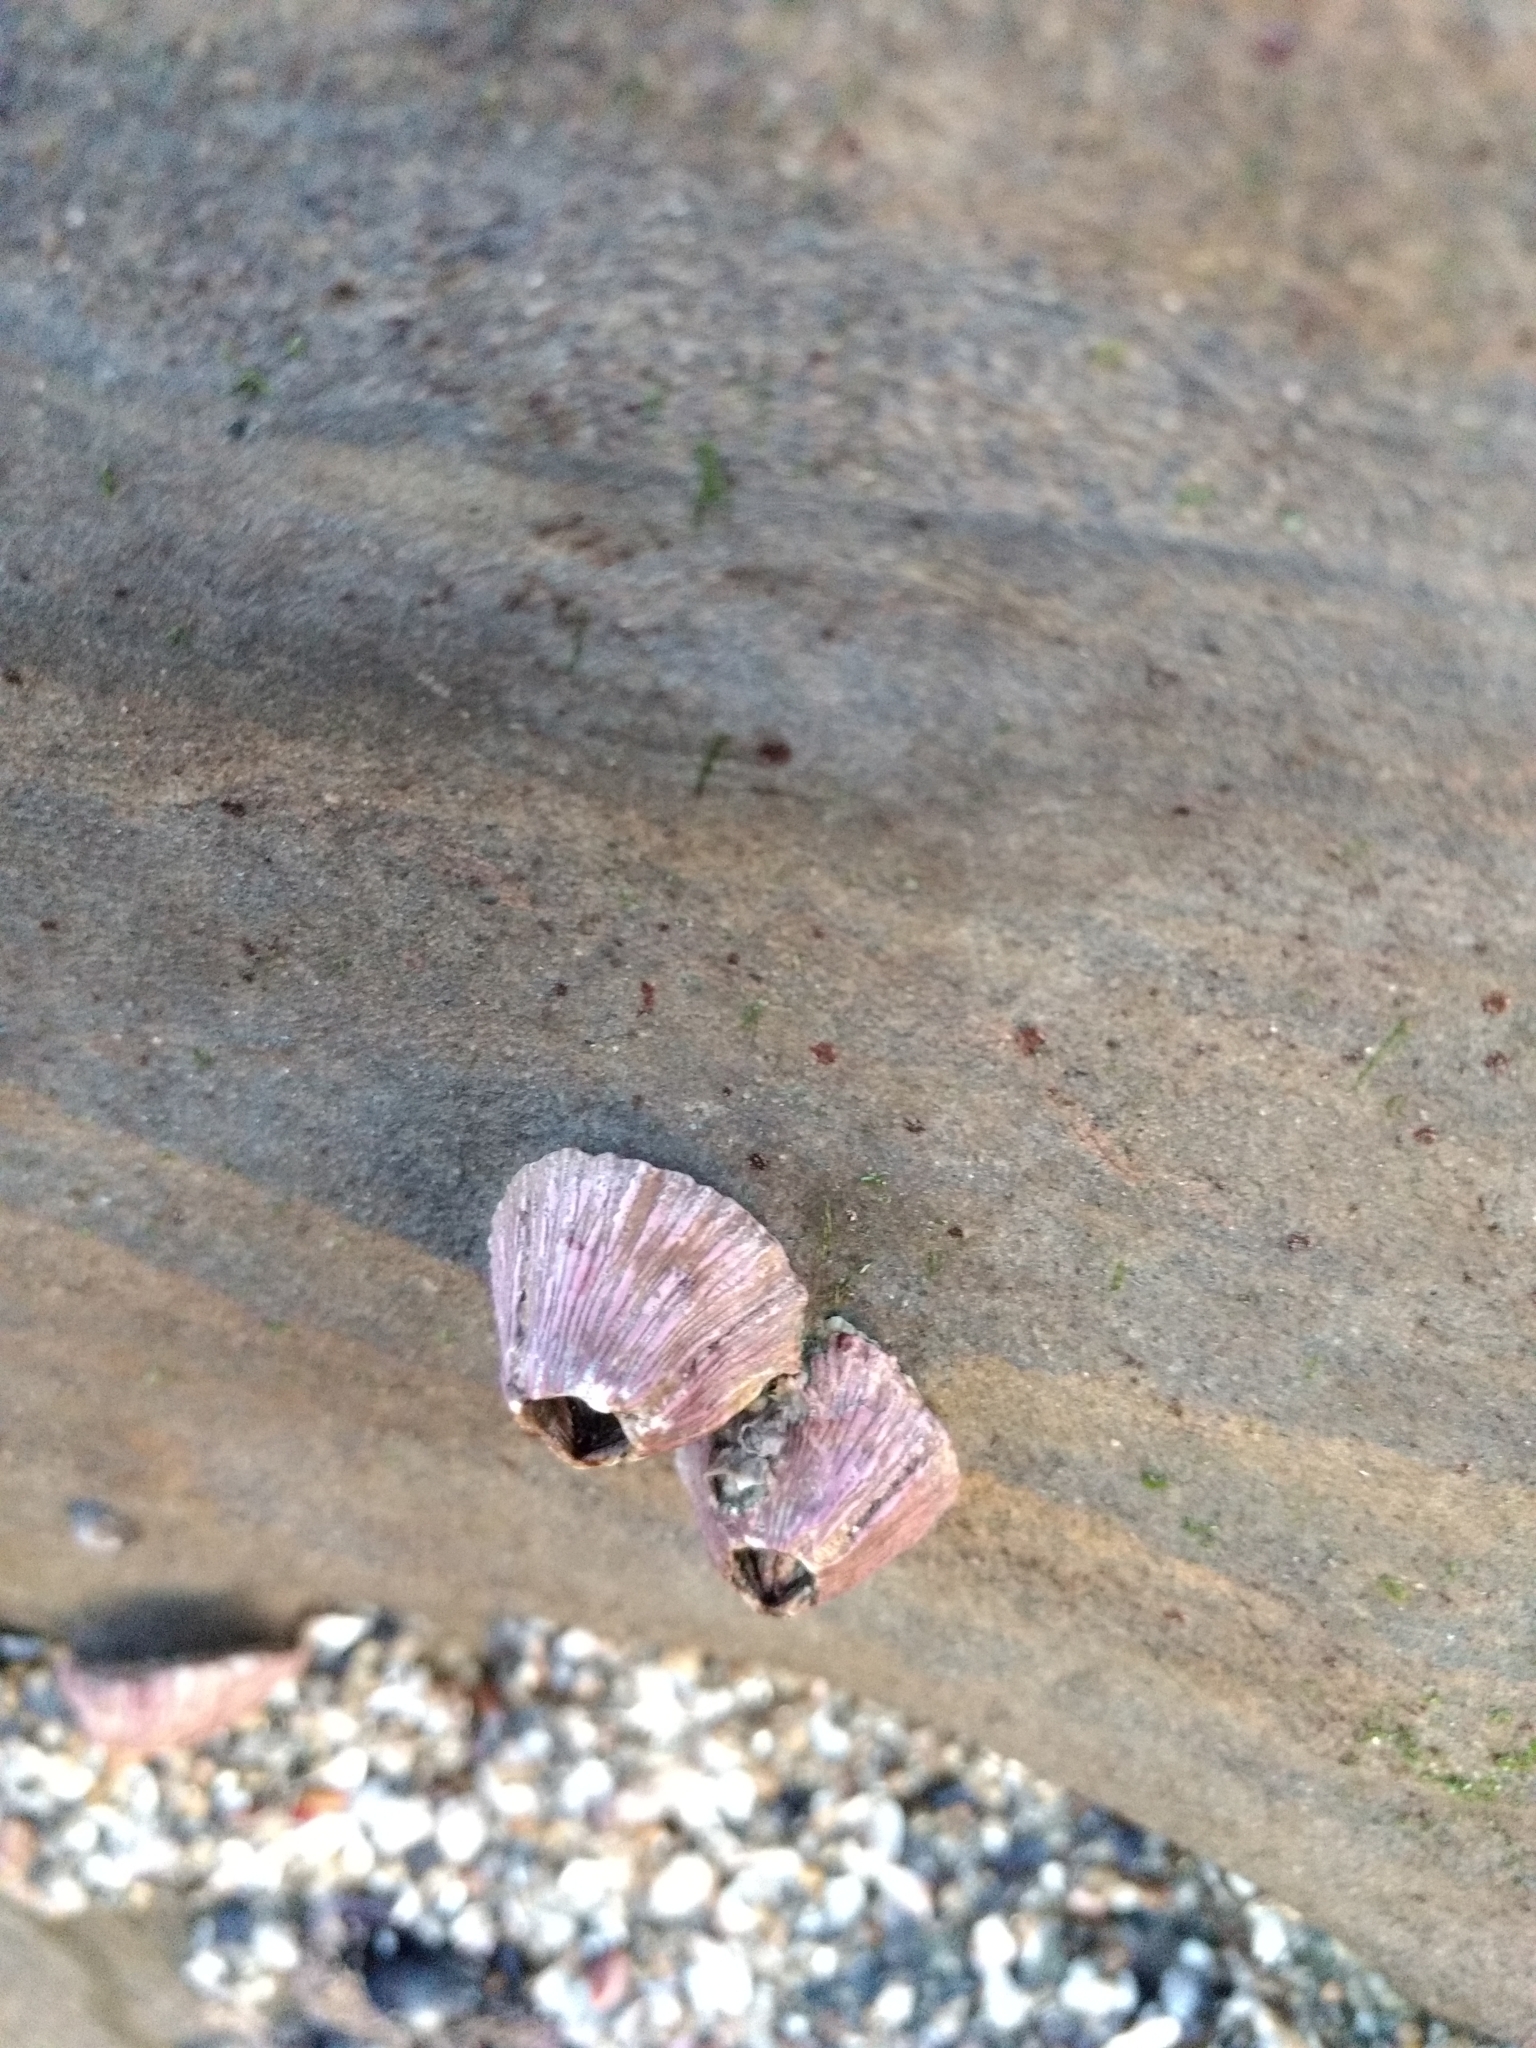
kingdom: Animalia
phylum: Arthropoda
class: Maxillopoda
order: Sessilia
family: Tetraclitidae
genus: Tetraclita
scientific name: Tetraclita rubescens
